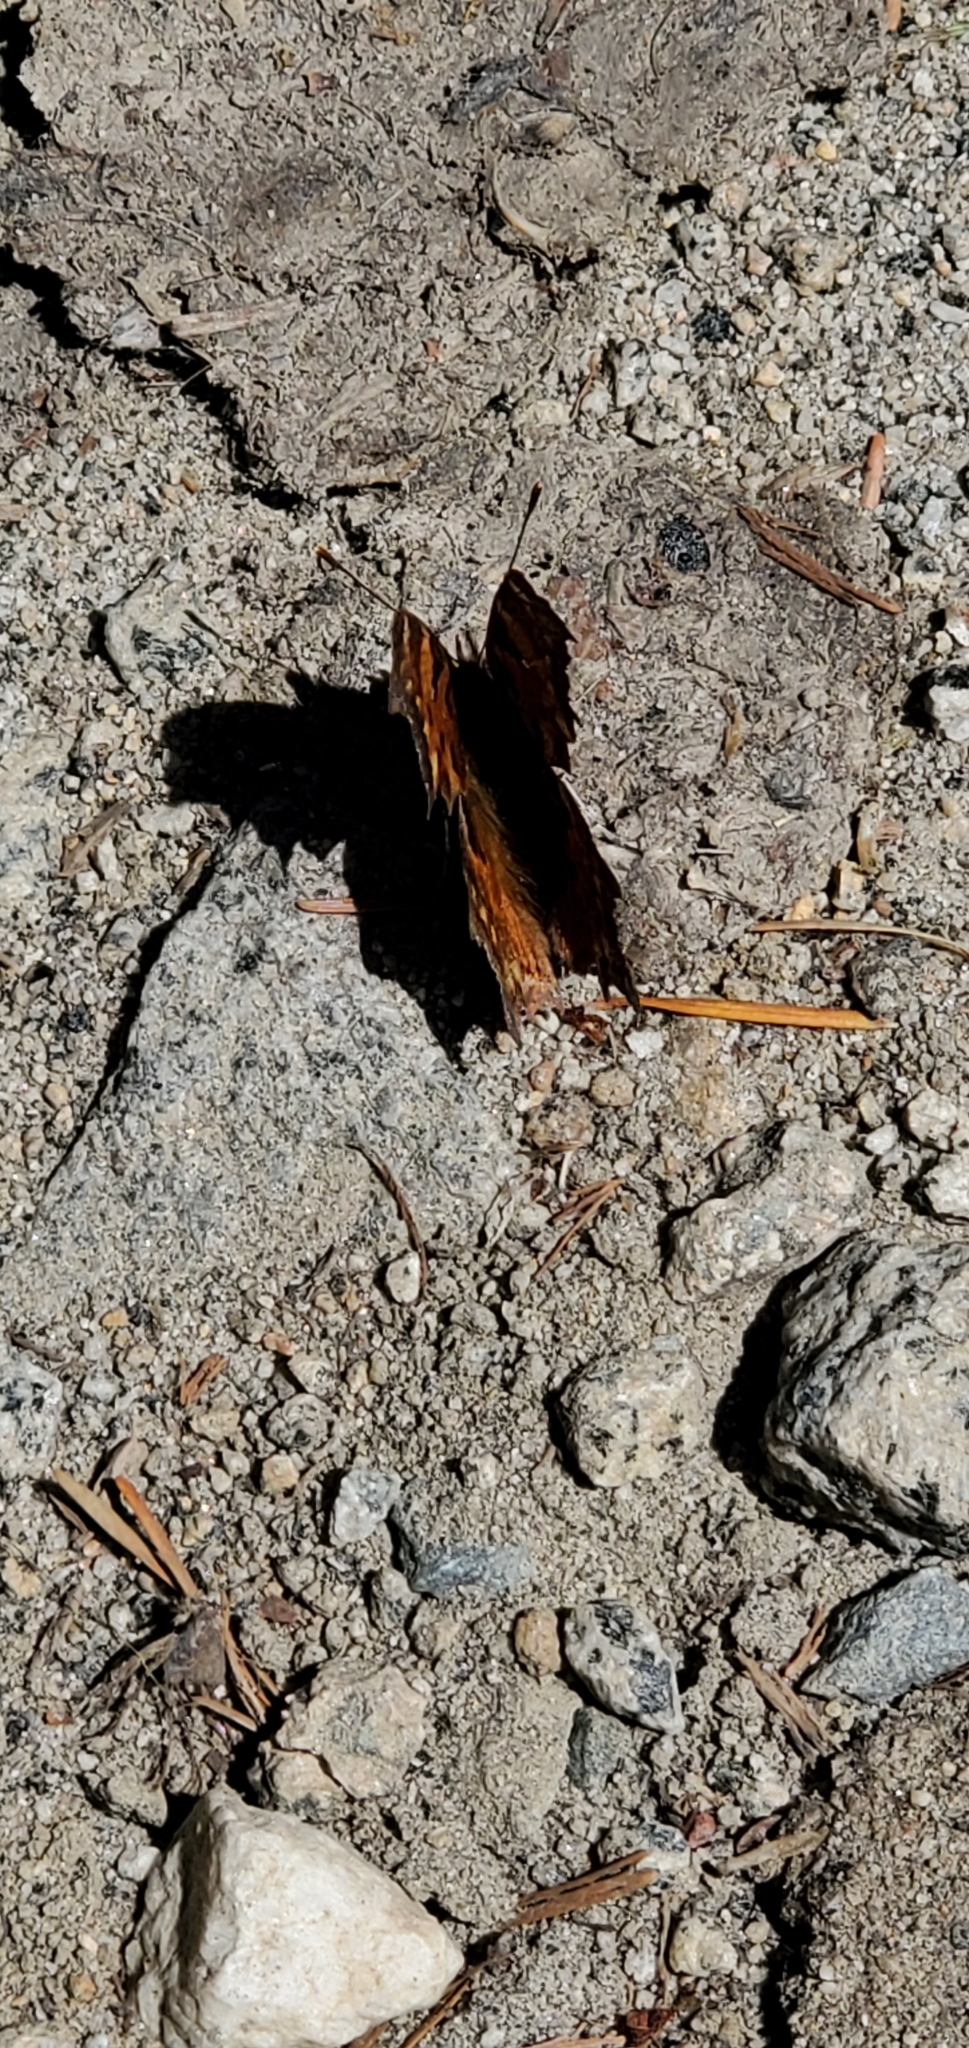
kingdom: Animalia
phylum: Arthropoda
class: Insecta
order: Lepidoptera
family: Nymphalidae
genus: Polygonia
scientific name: Polygonia gracilis
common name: Hoary comma
